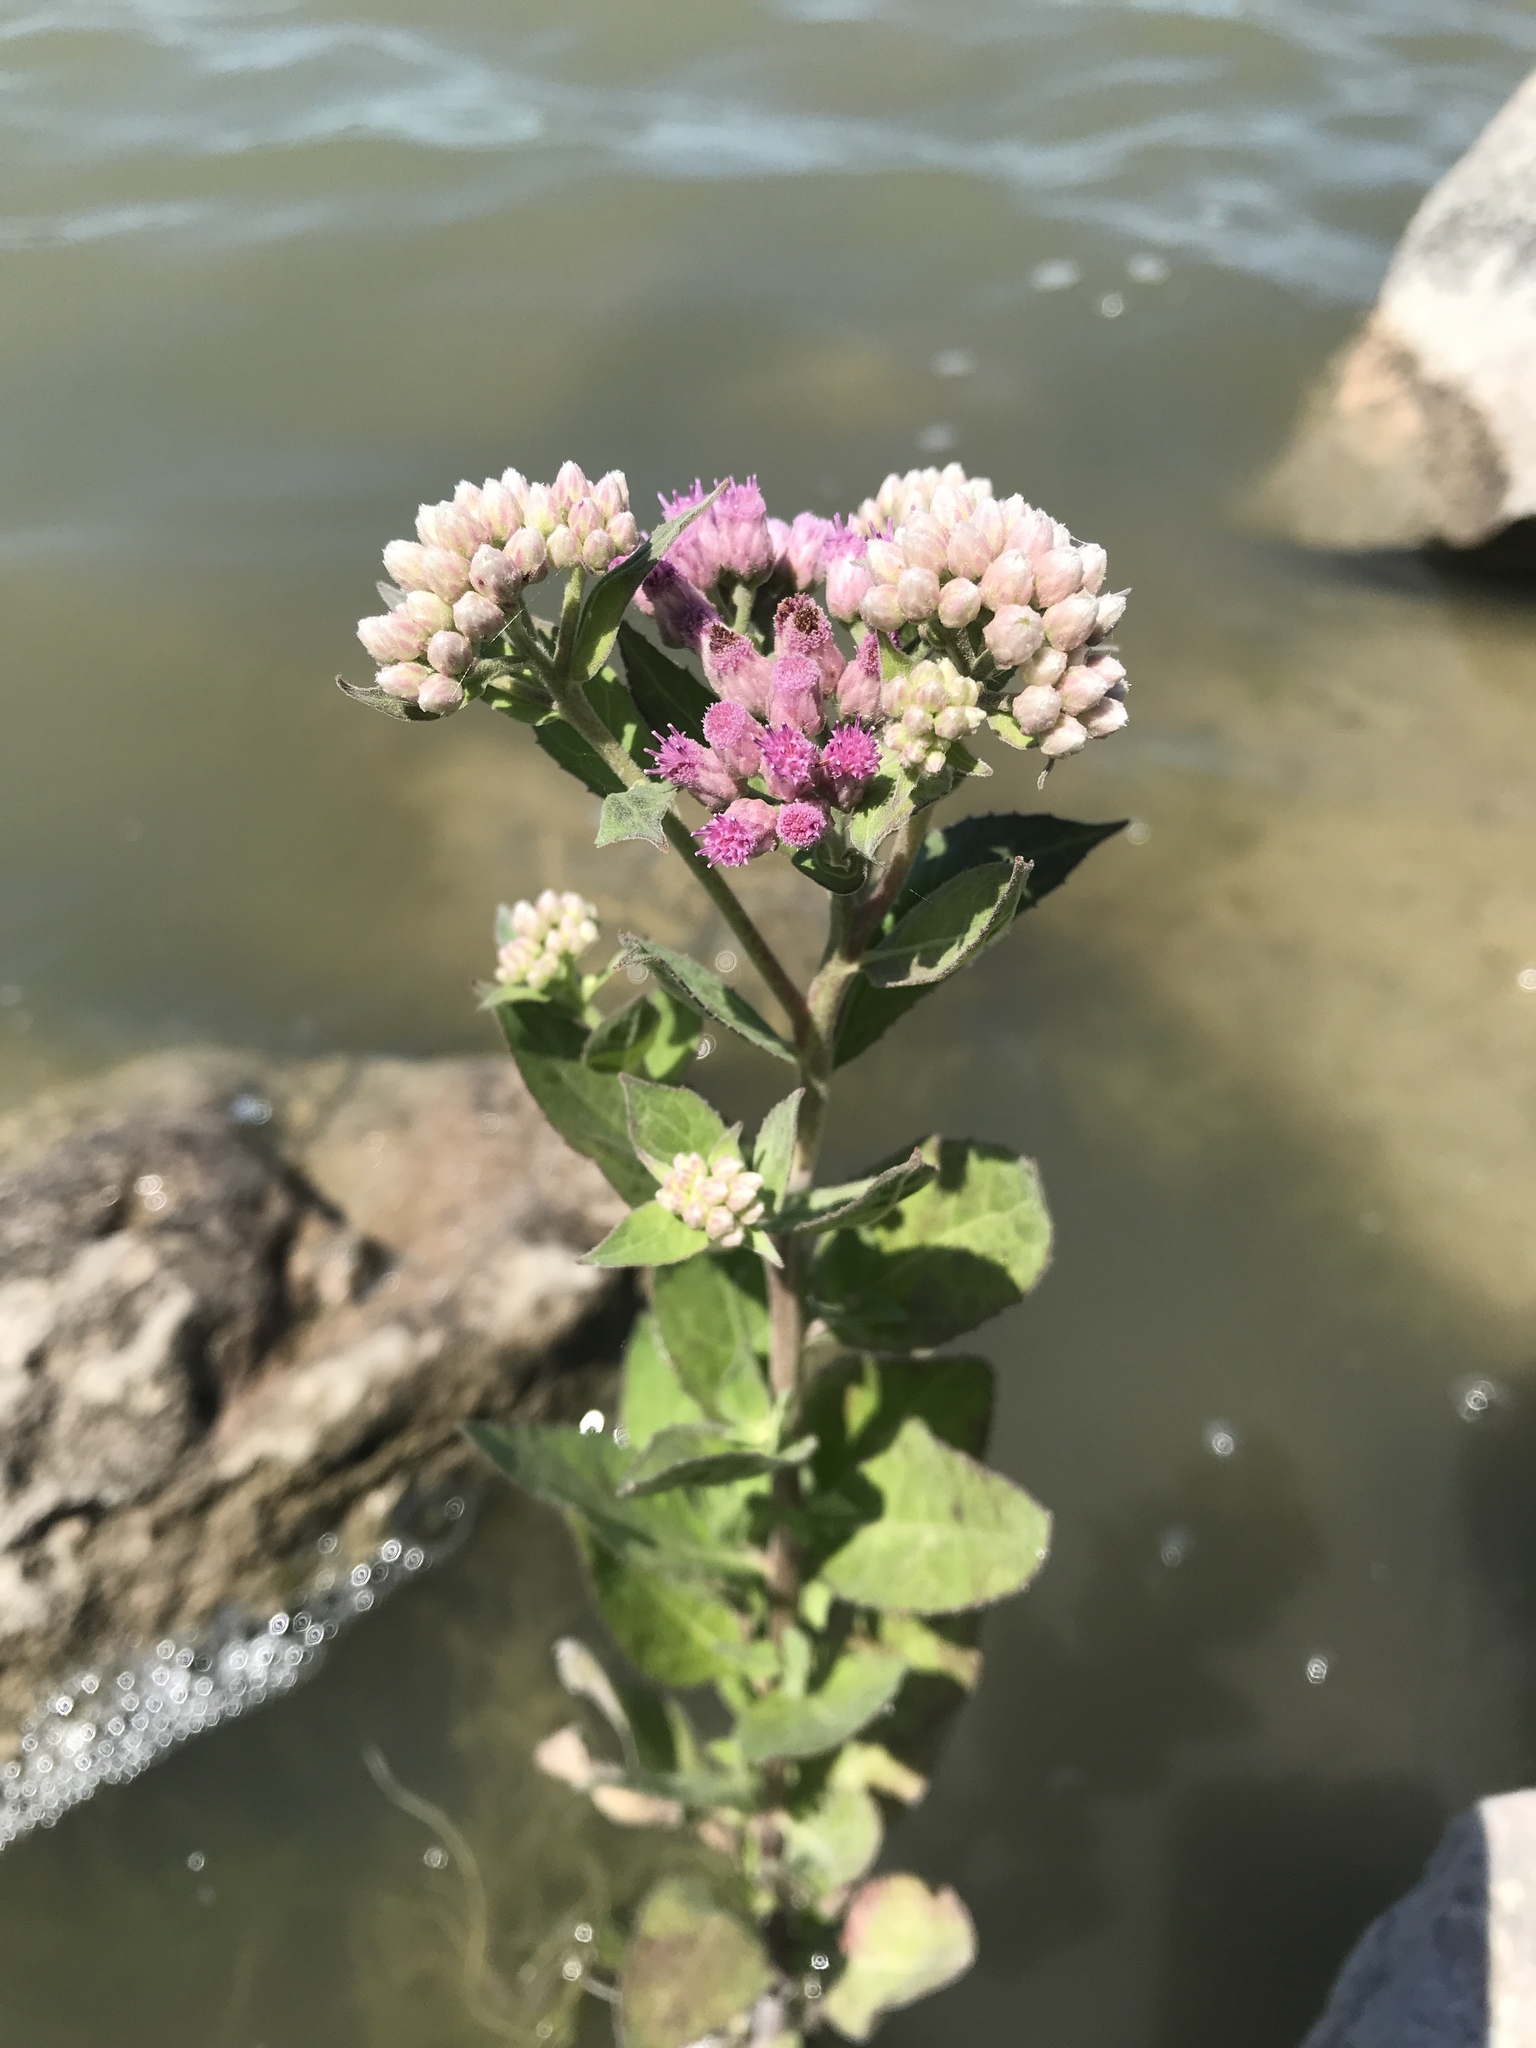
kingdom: Plantae
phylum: Tracheophyta
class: Magnoliopsida
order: Asterales
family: Asteraceae
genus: Pluchea
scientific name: Pluchea odorata
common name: Saltmarsh fleabane
